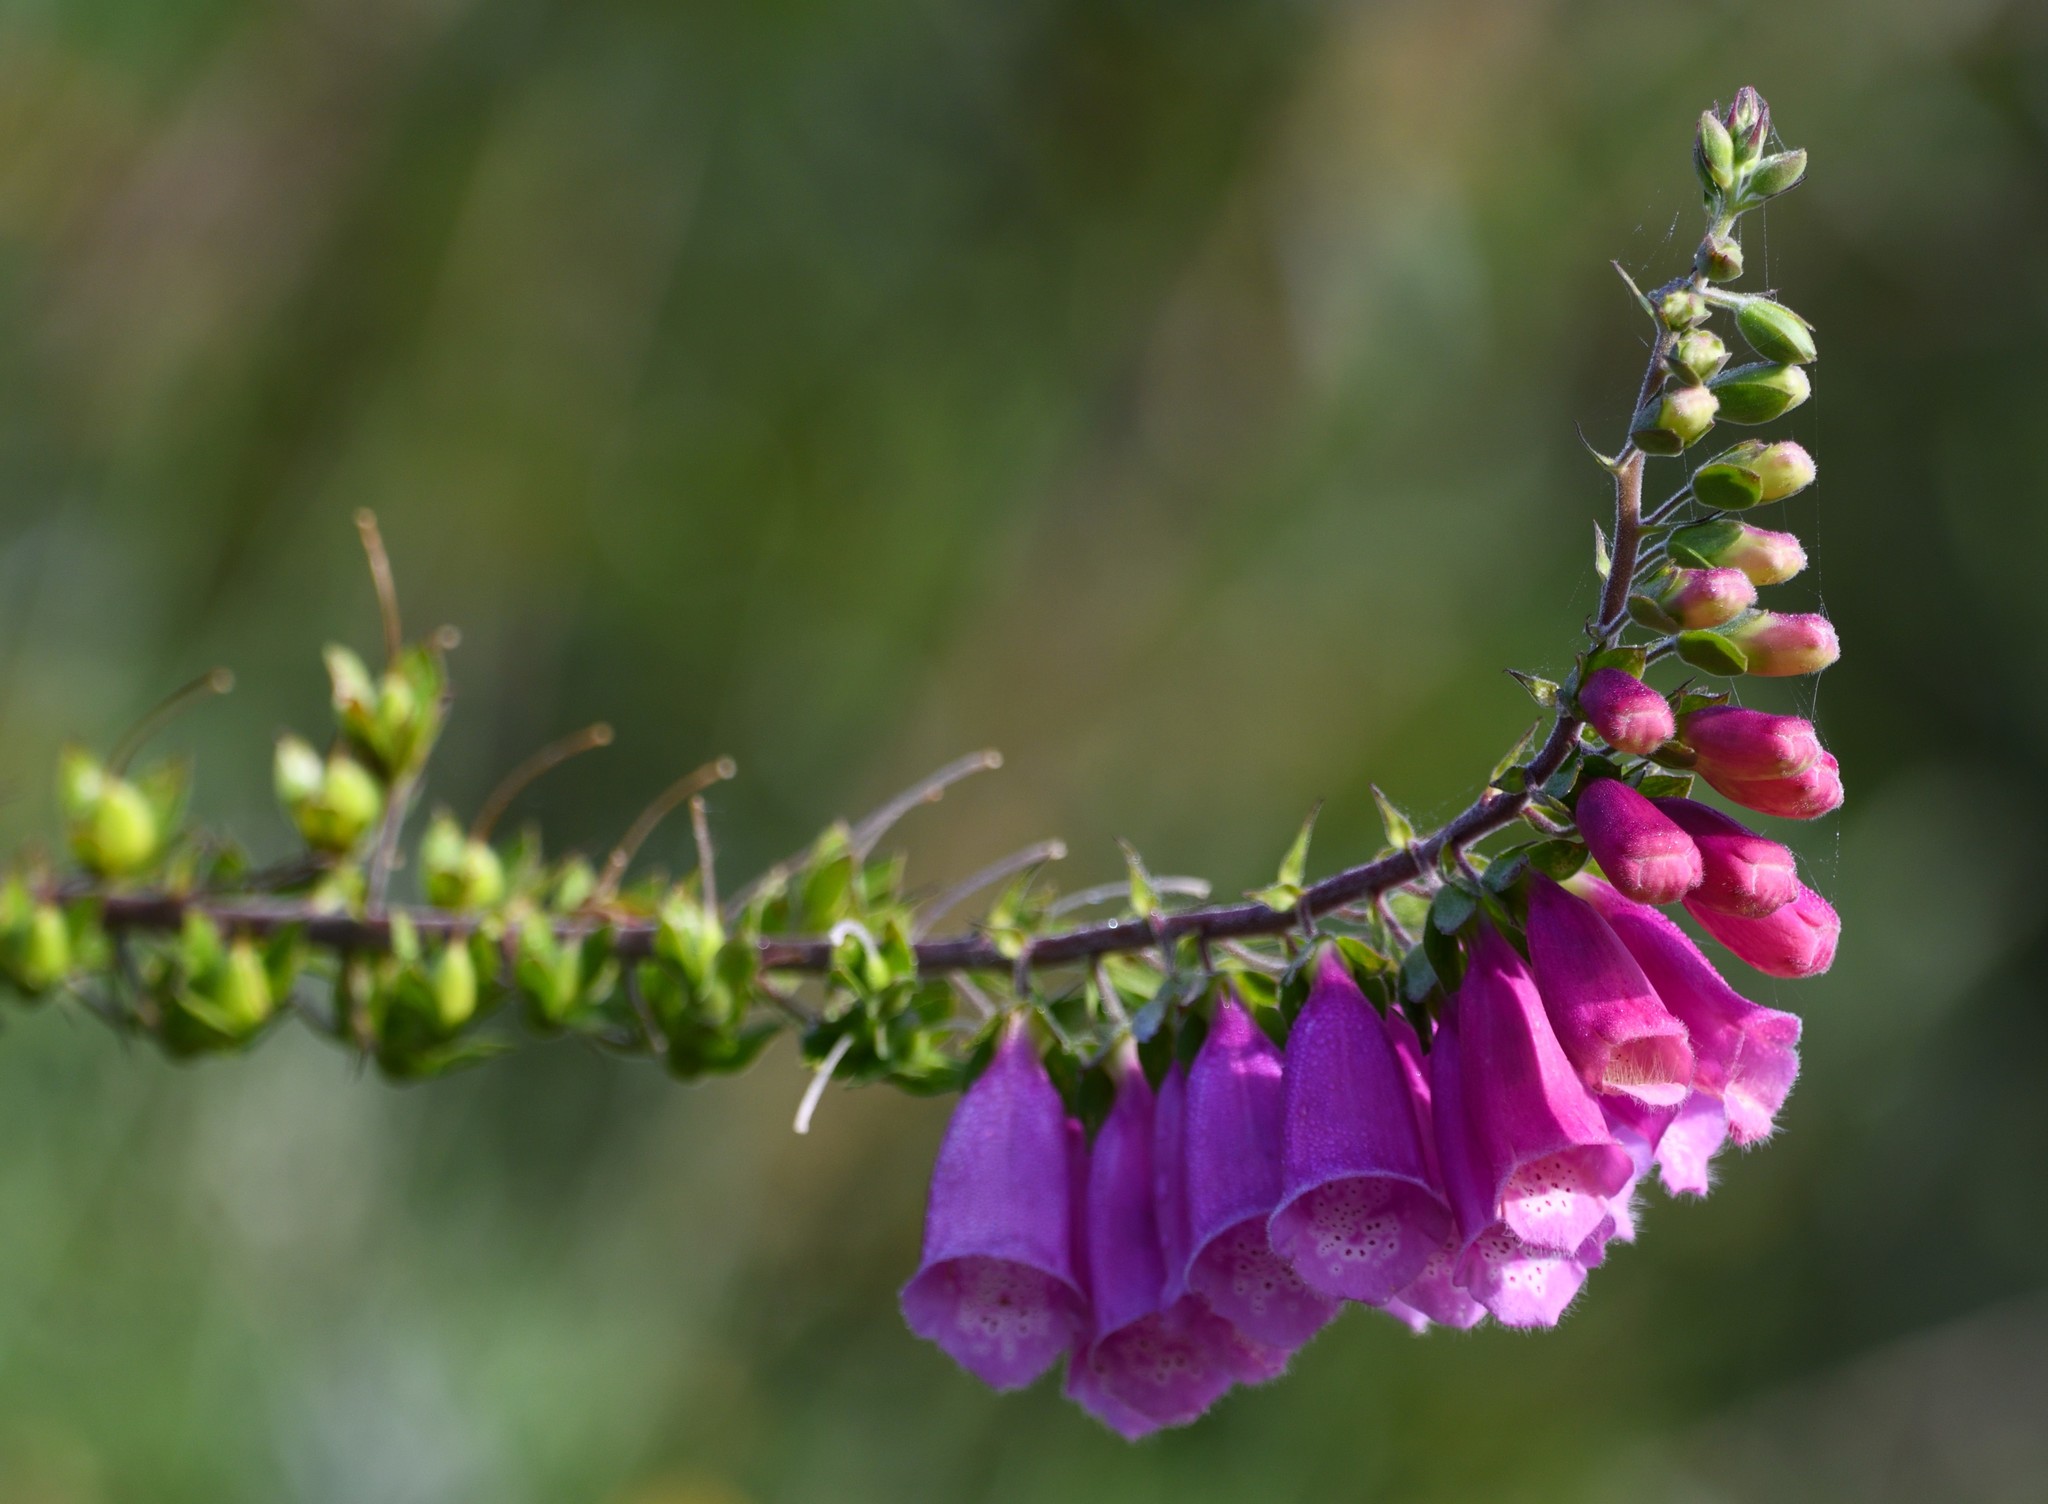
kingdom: Plantae
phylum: Tracheophyta
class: Magnoliopsida
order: Lamiales
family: Plantaginaceae
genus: Digitalis
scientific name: Digitalis purpurea
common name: Foxglove
